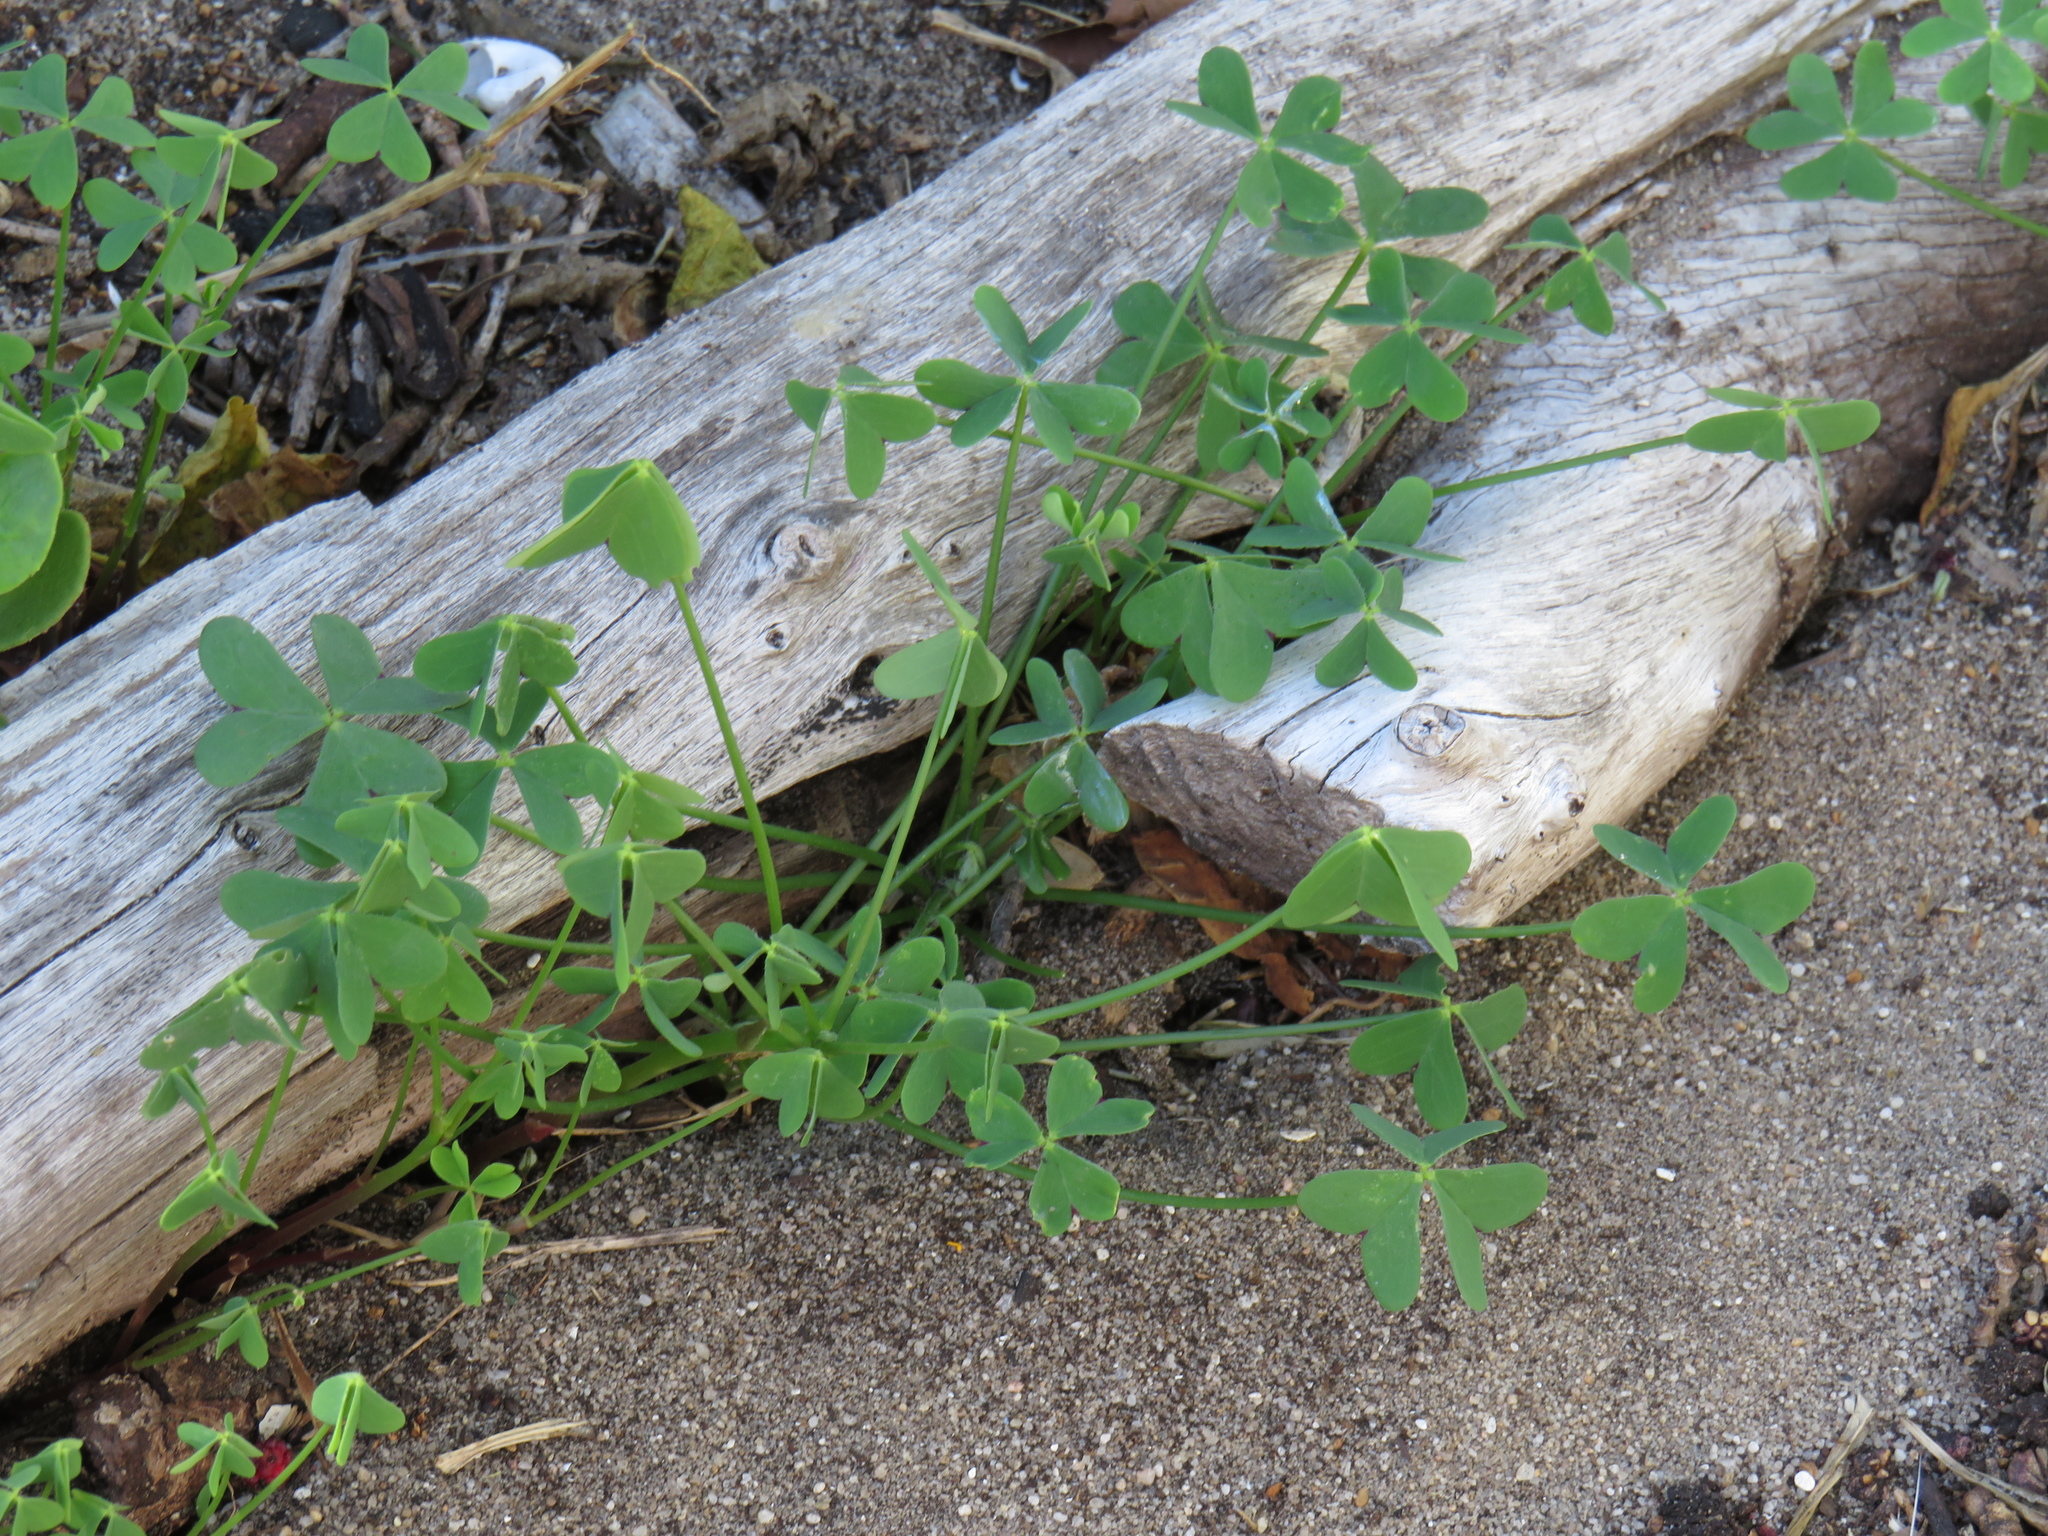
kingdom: Plantae
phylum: Tracheophyta
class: Magnoliopsida
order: Oxalidales
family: Oxalidaceae
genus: Oxalis
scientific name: Oxalis pes-caprae
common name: Bermuda-buttercup
